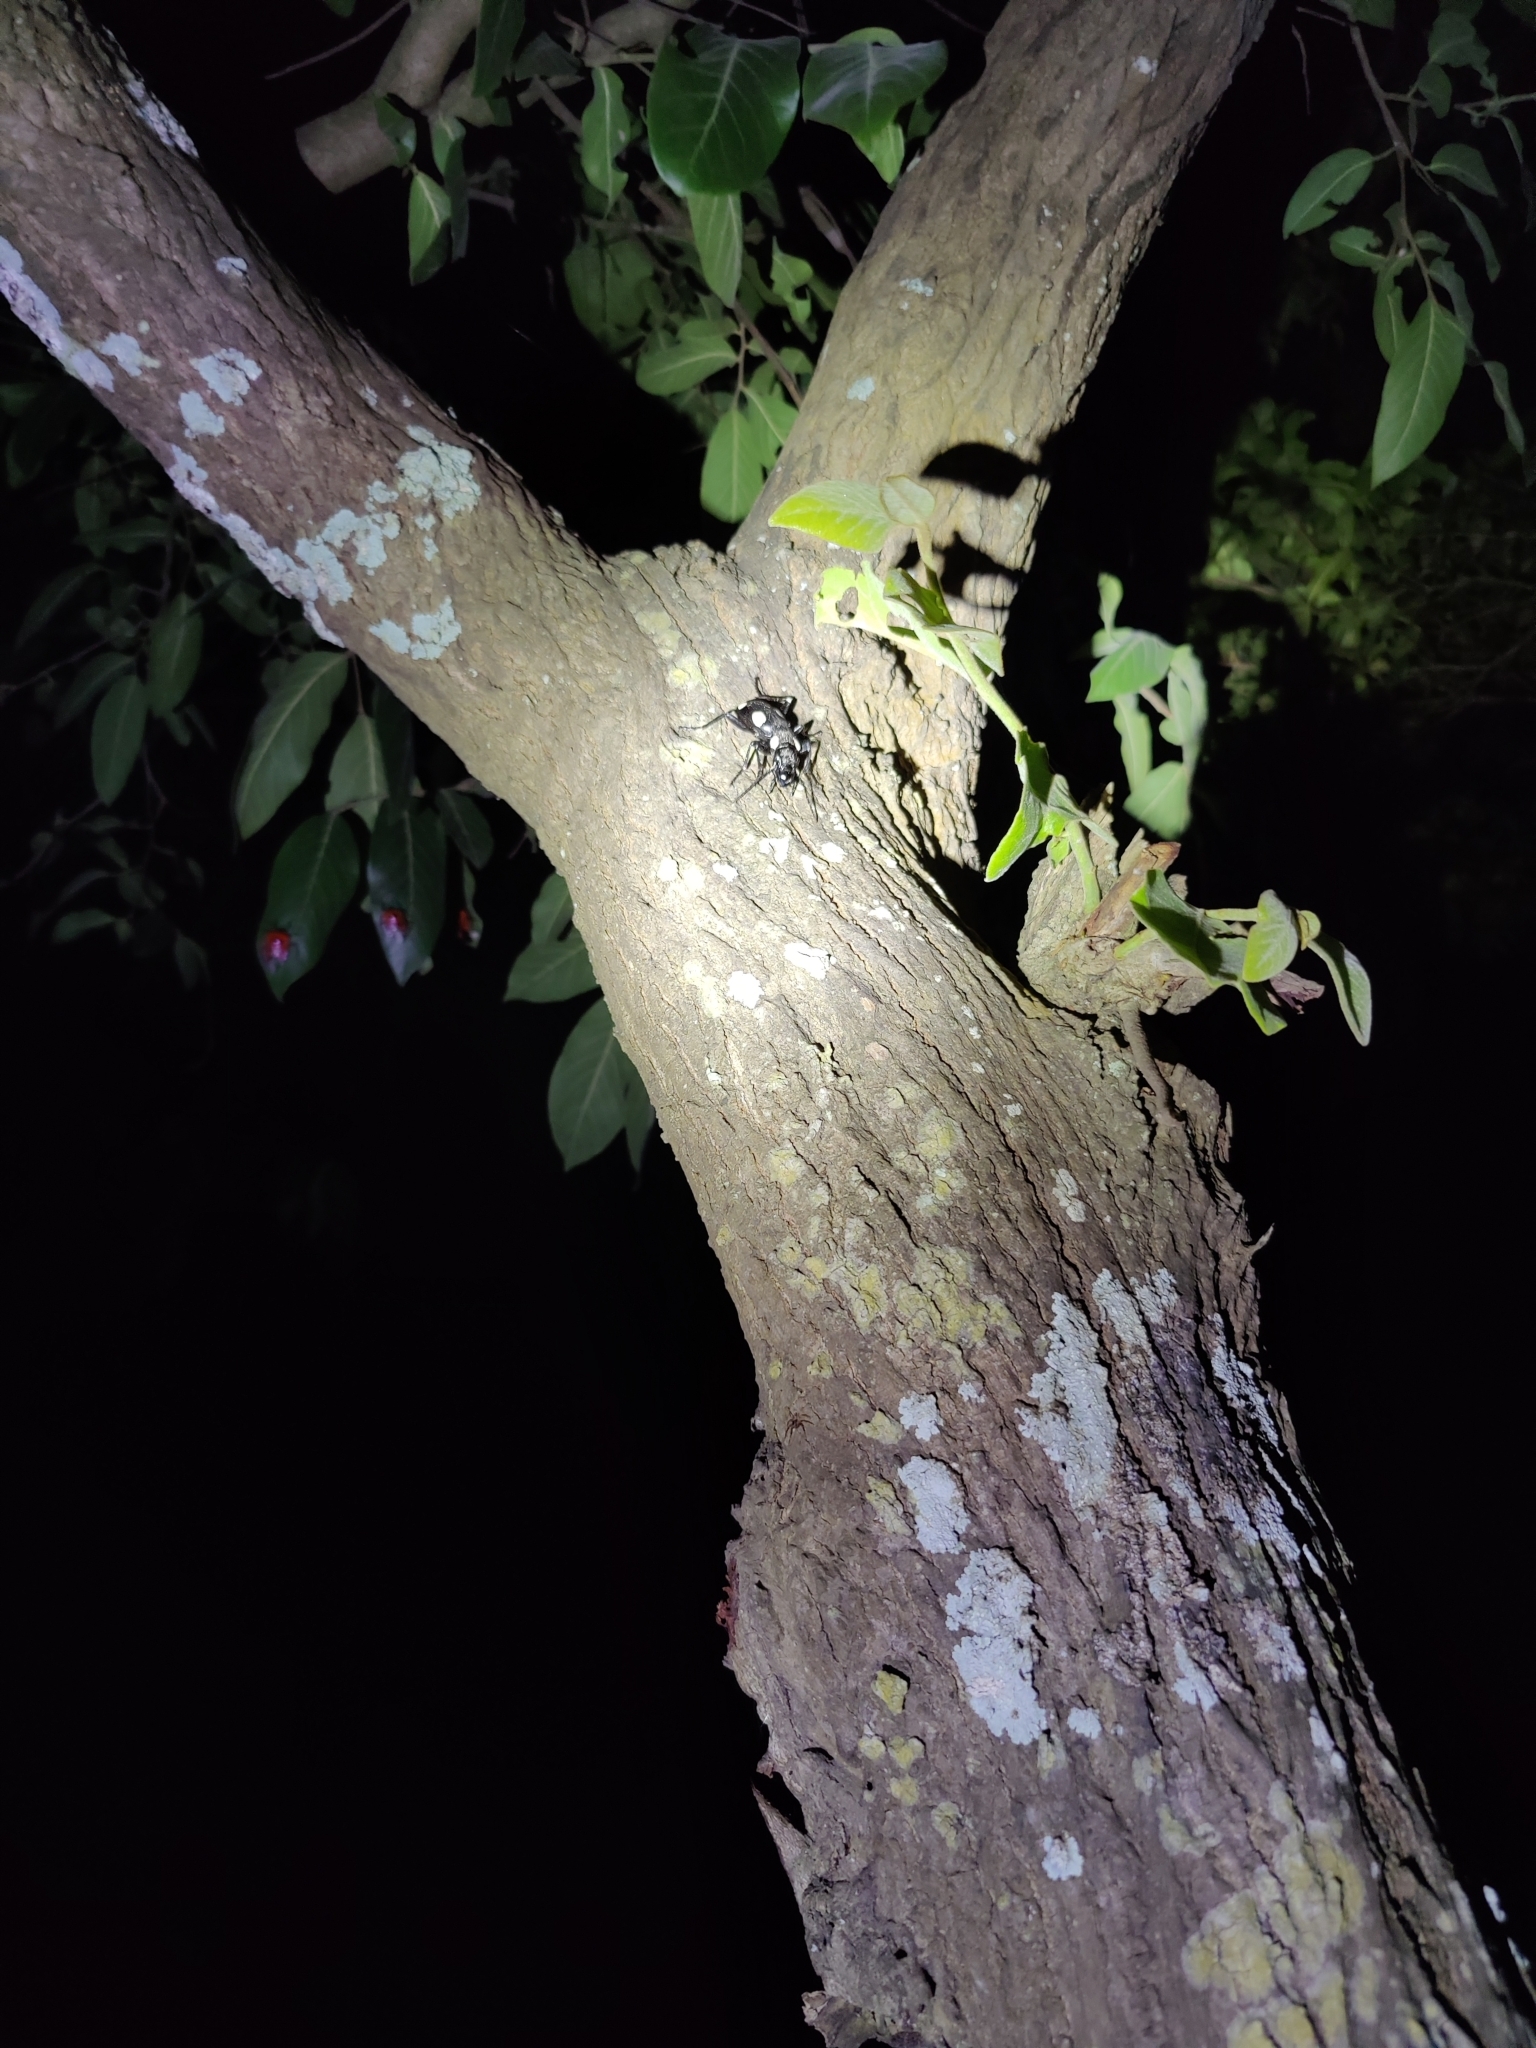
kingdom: Animalia
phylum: Arthropoda
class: Insecta
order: Coleoptera
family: Carabidae
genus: Anthia
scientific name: Anthia sexguttata
